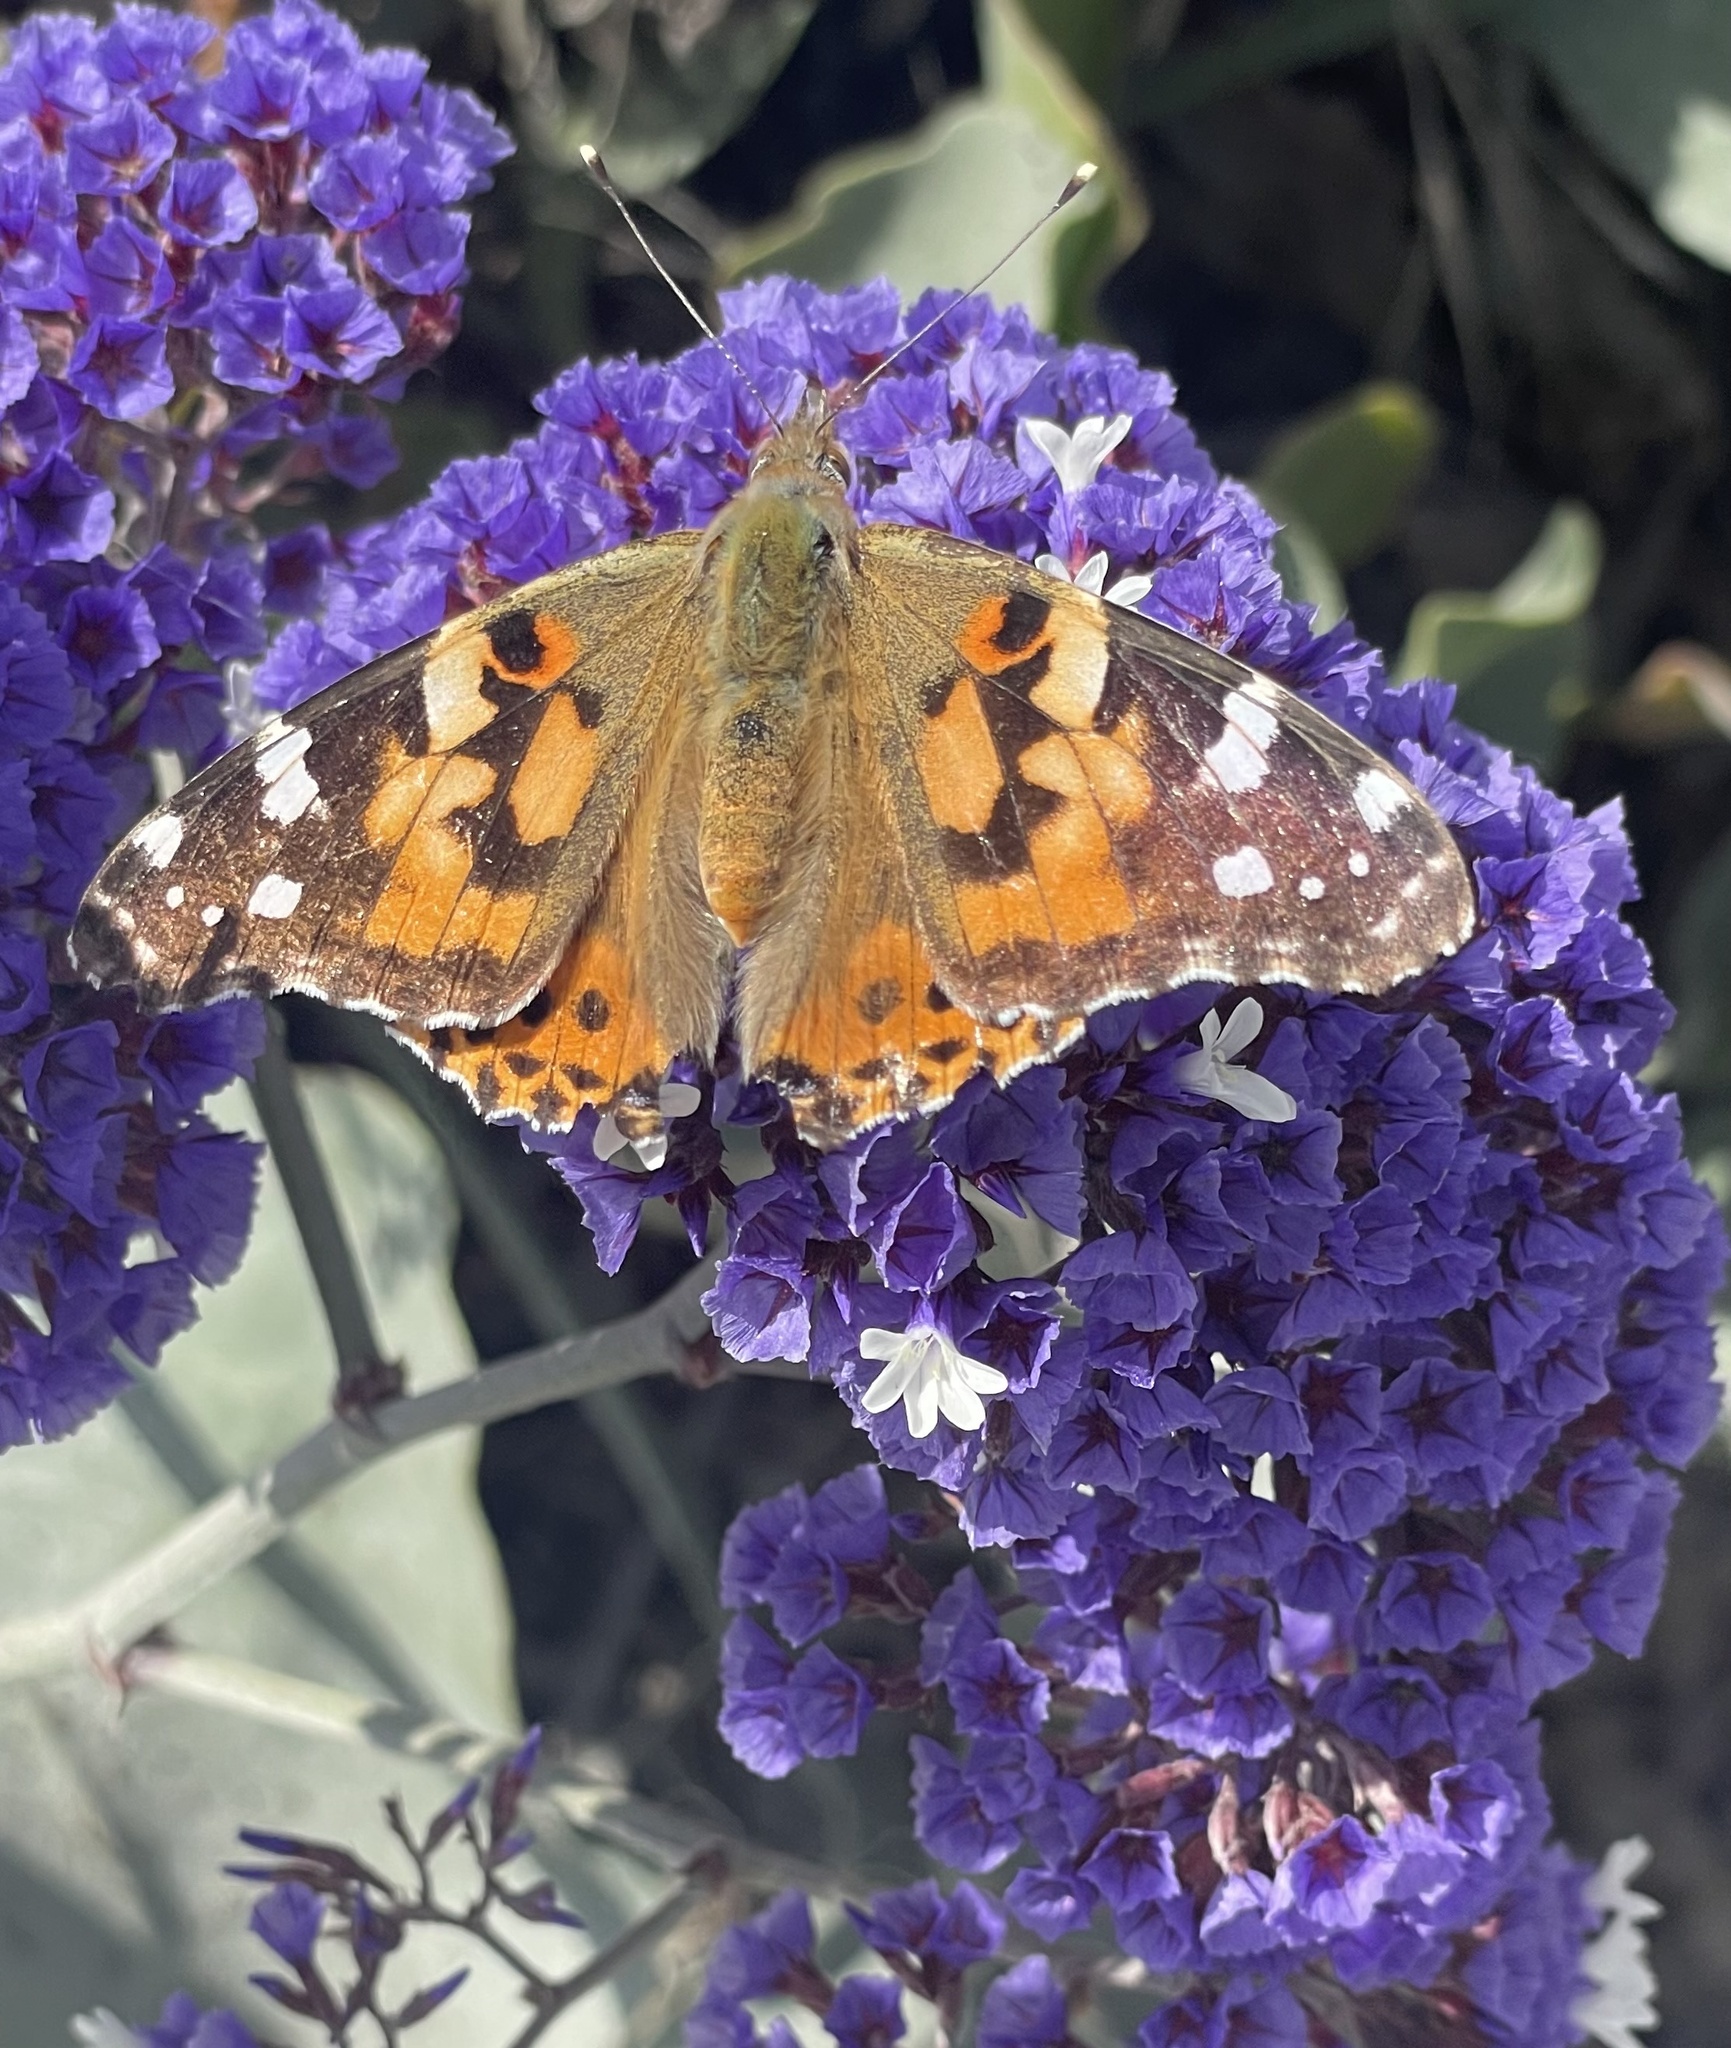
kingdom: Animalia
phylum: Arthropoda
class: Insecta
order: Lepidoptera
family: Nymphalidae
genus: Vanessa
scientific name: Vanessa cardui
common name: Painted lady
